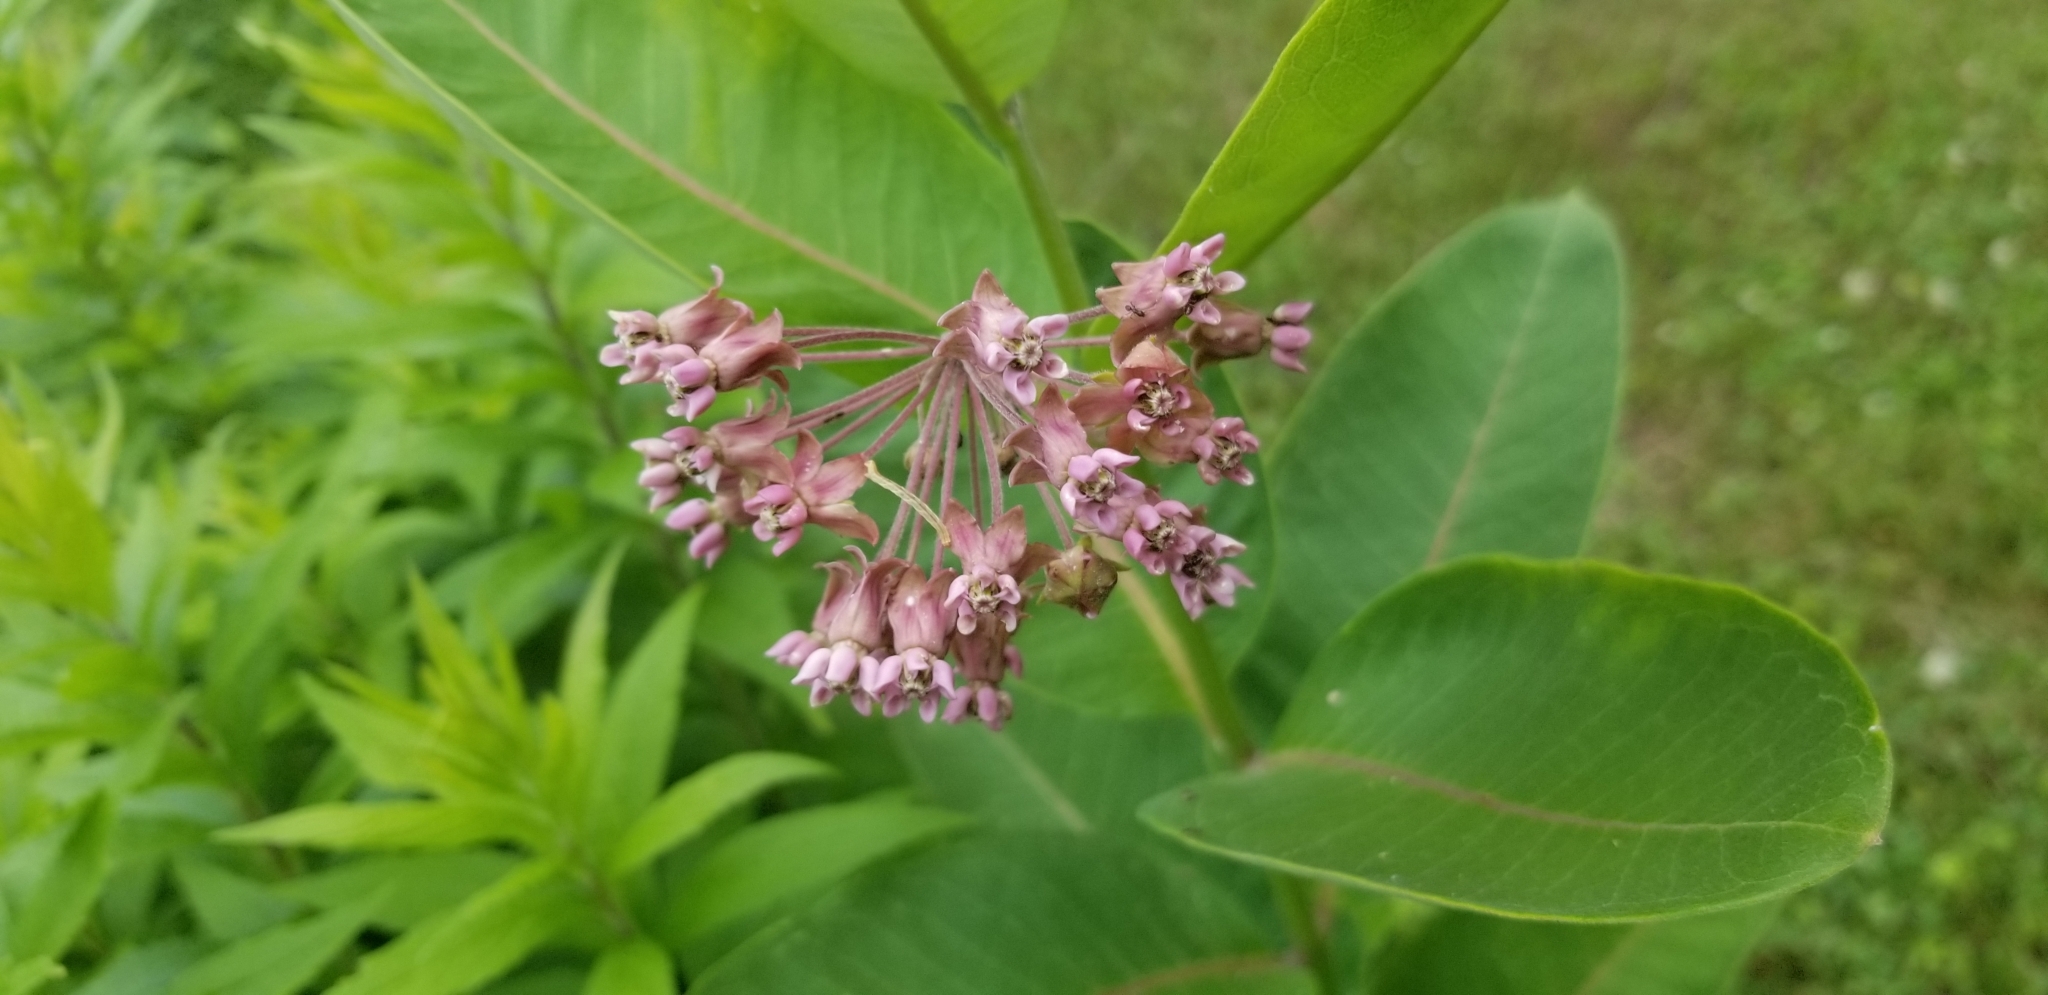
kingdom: Plantae
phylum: Tracheophyta
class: Magnoliopsida
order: Gentianales
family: Apocynaceae
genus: Asclepias
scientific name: Asclepias syriaca
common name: Common milkweed
